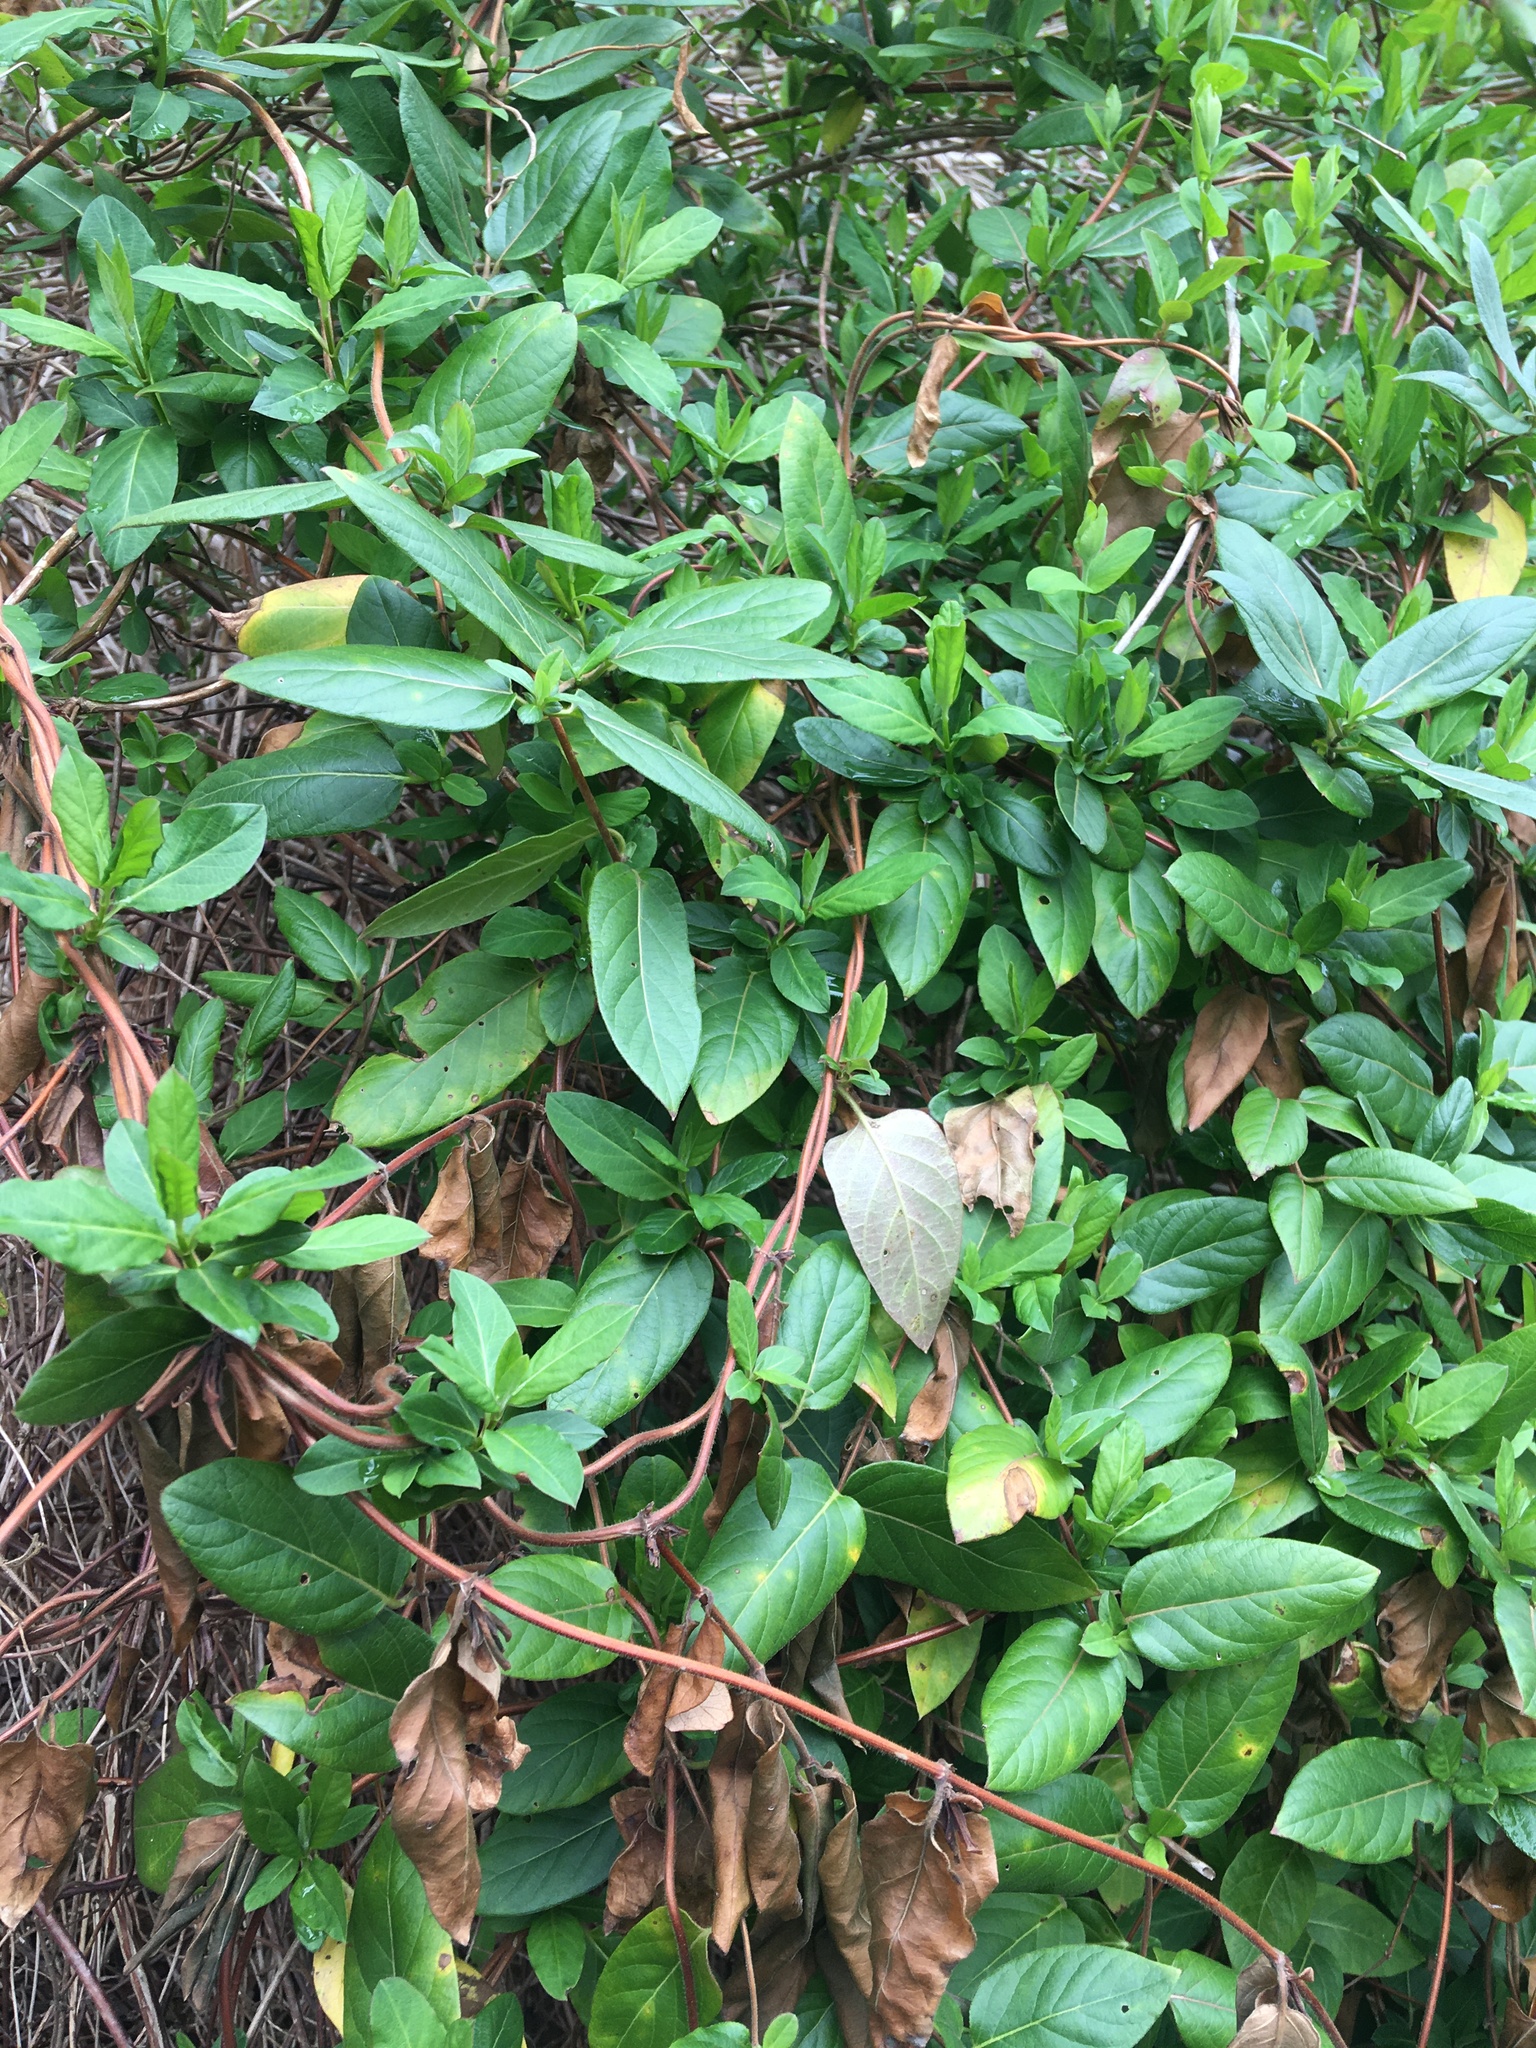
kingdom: Plantae
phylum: Tracheophyta
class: Magnoliopsida
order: Dipsacales
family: Caprifoliaceae
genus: Lonicera
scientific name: Lonicera japonica
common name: Japanese honeysuckle
